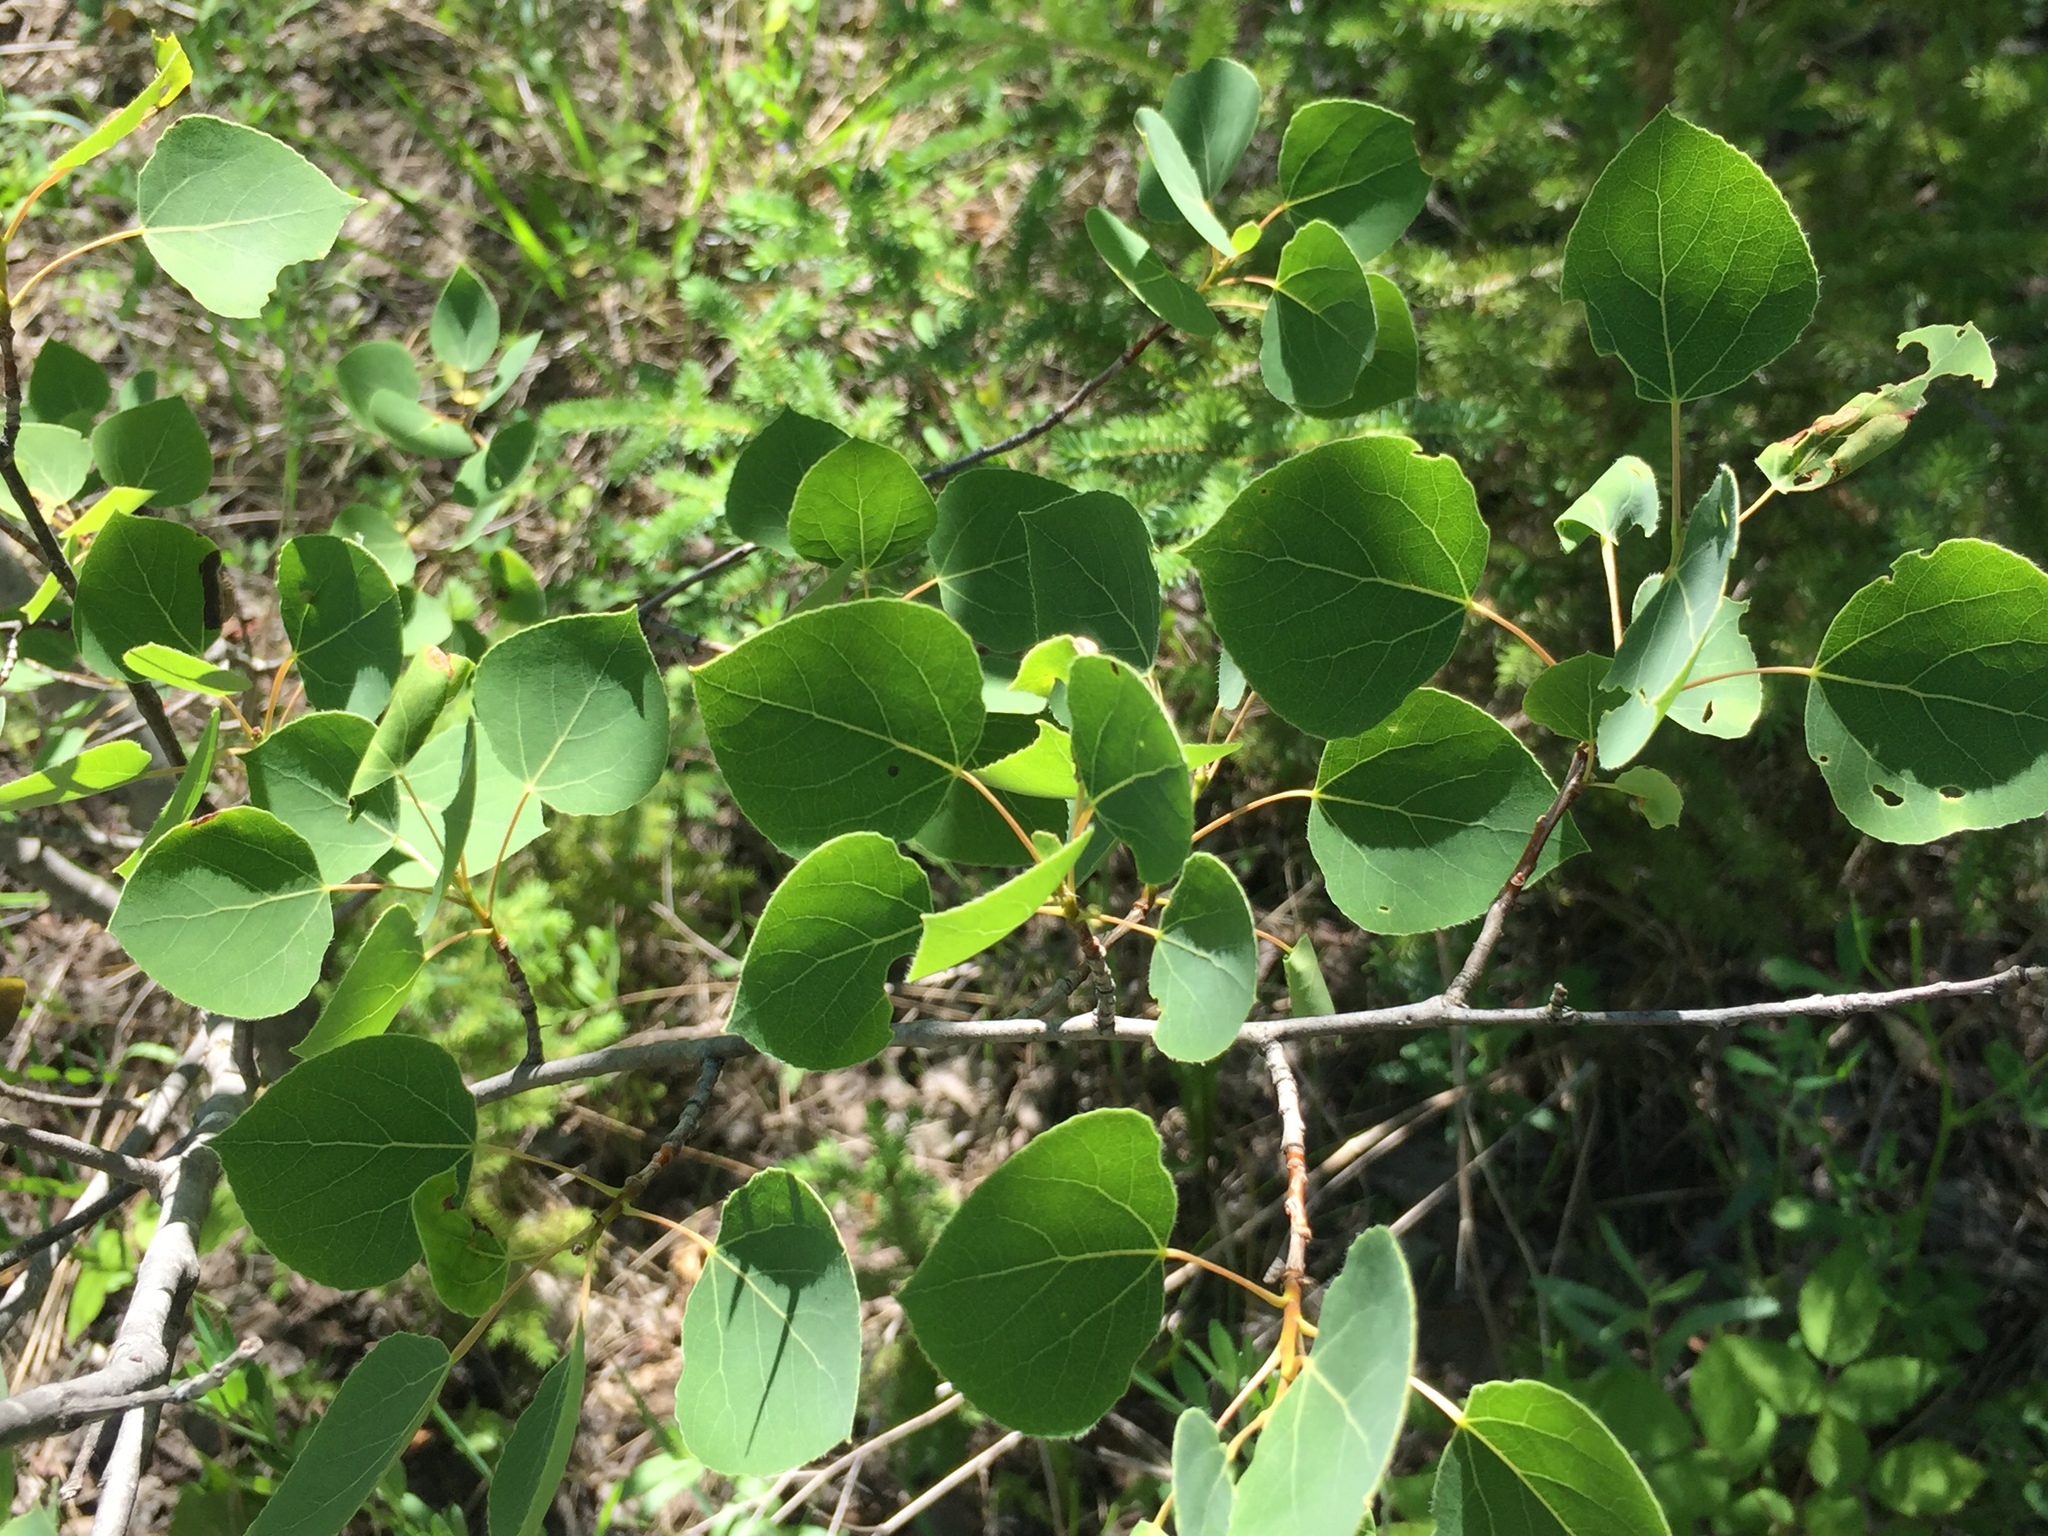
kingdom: Plantae
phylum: Tracheophyta
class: Magnoliopsida
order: Malpighiales
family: Salicaceae
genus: Populus
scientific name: Populus tremuloides
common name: Quaking aspen
